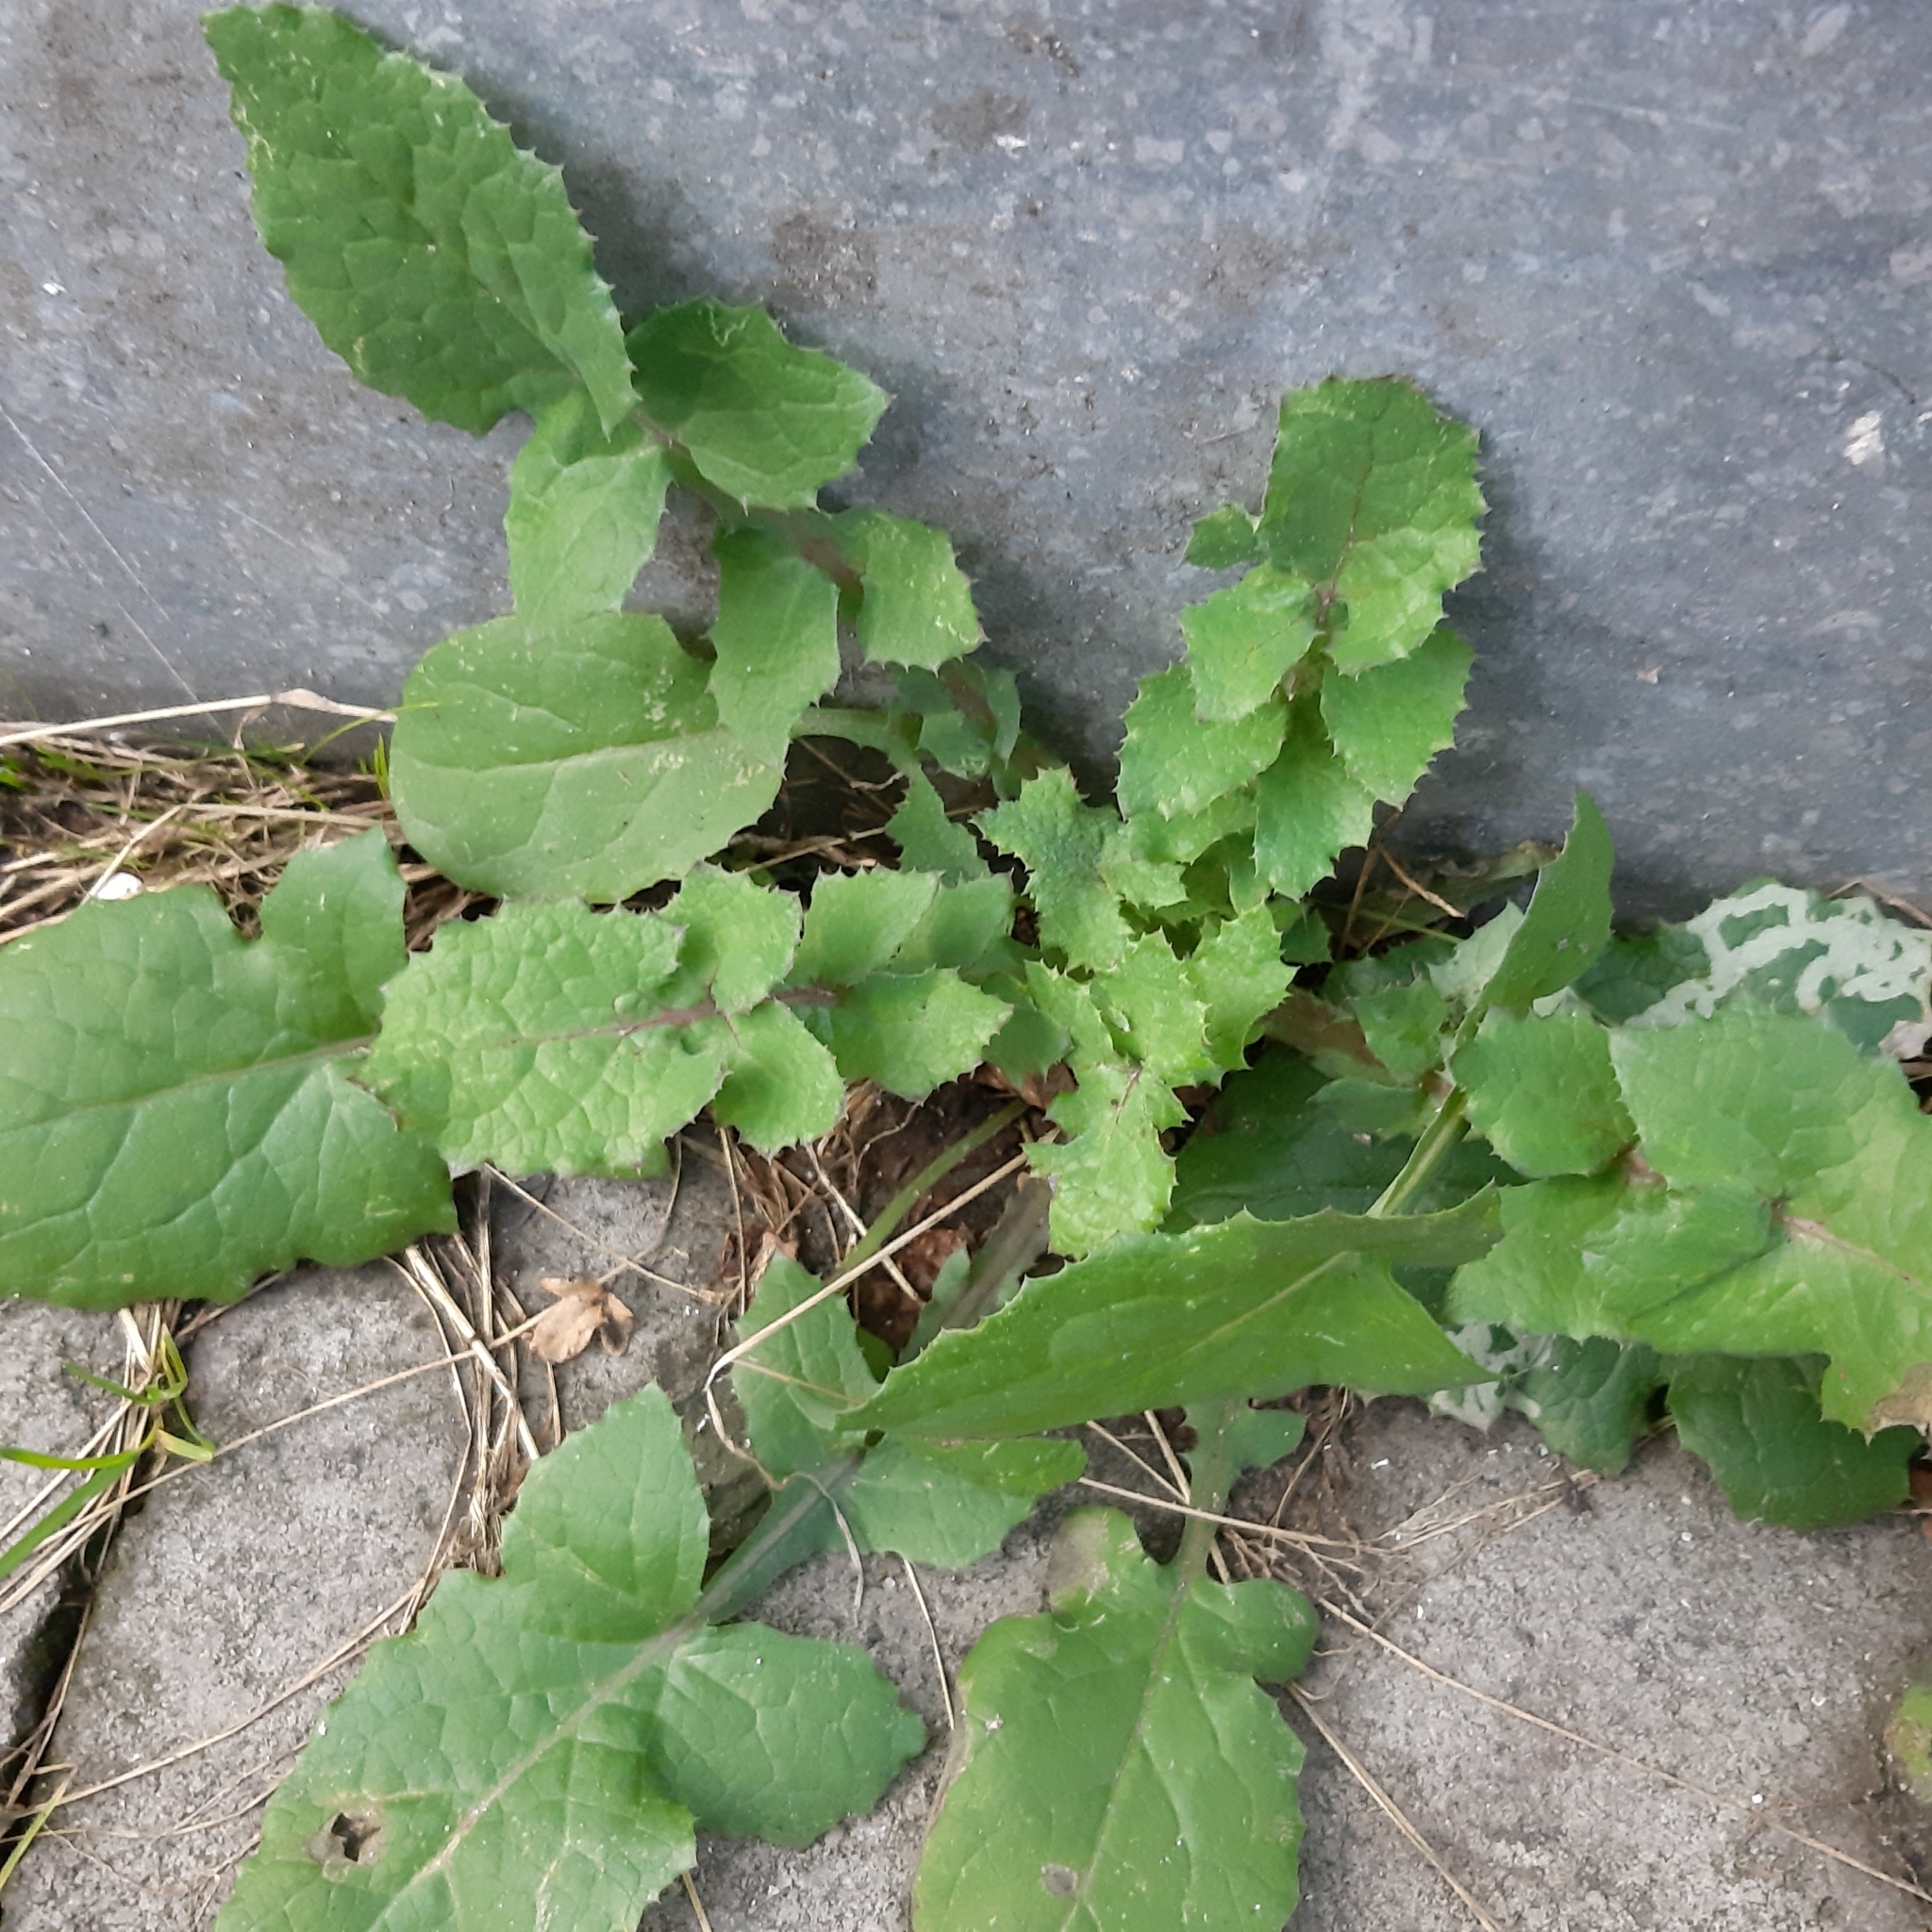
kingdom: Plantae
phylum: Tracheophyta
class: Magnoliopsida
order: Asterales
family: Asteraceae
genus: Sonchus
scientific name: Sonchus oleraceus
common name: Common sowthistle
